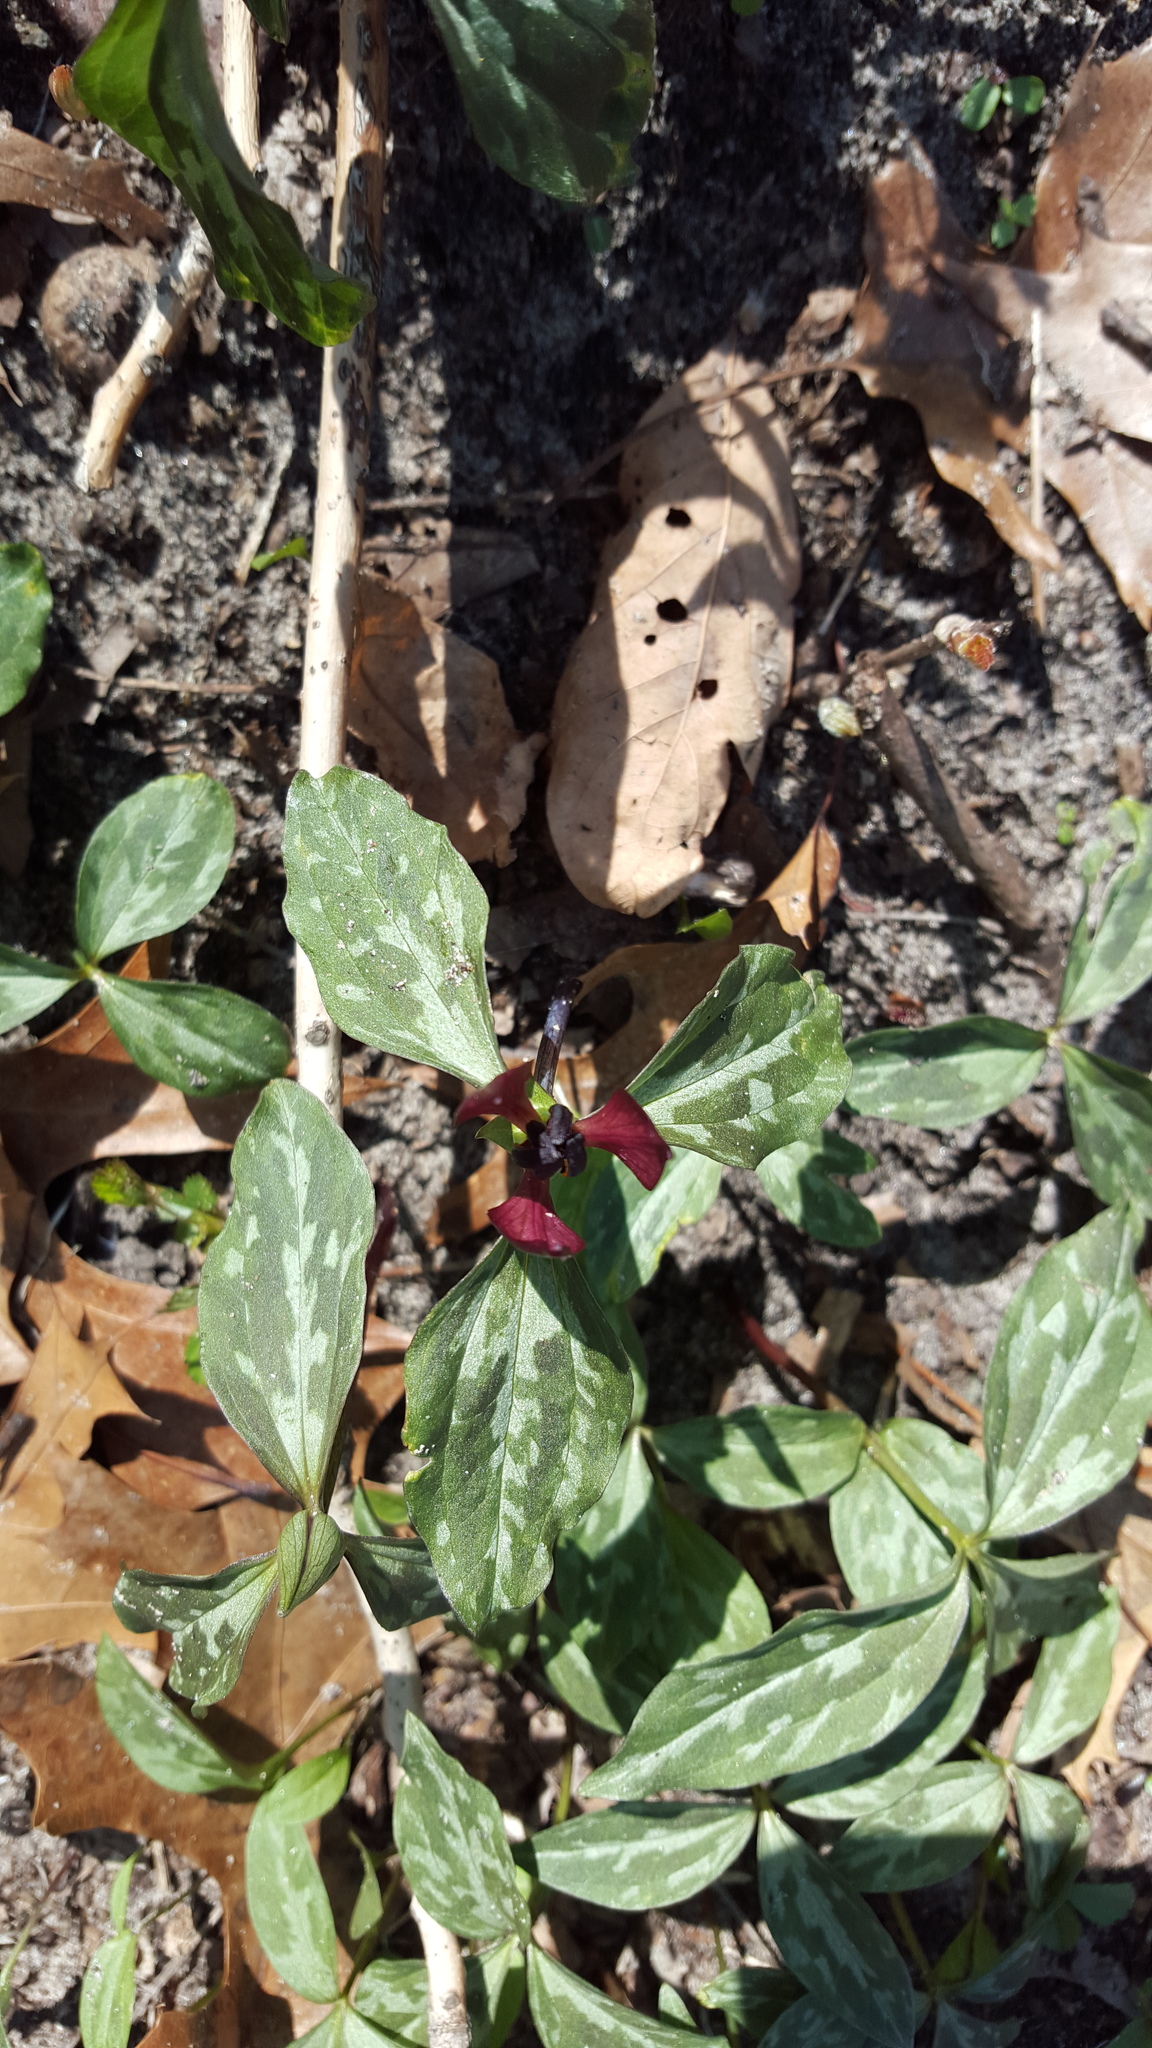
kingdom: Plantae
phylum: Tracheophyta
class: Liliopsida
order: Liliales
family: Melanthiaceae
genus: Trillium
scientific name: Trillium recurvatum
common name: Bloody butcher
